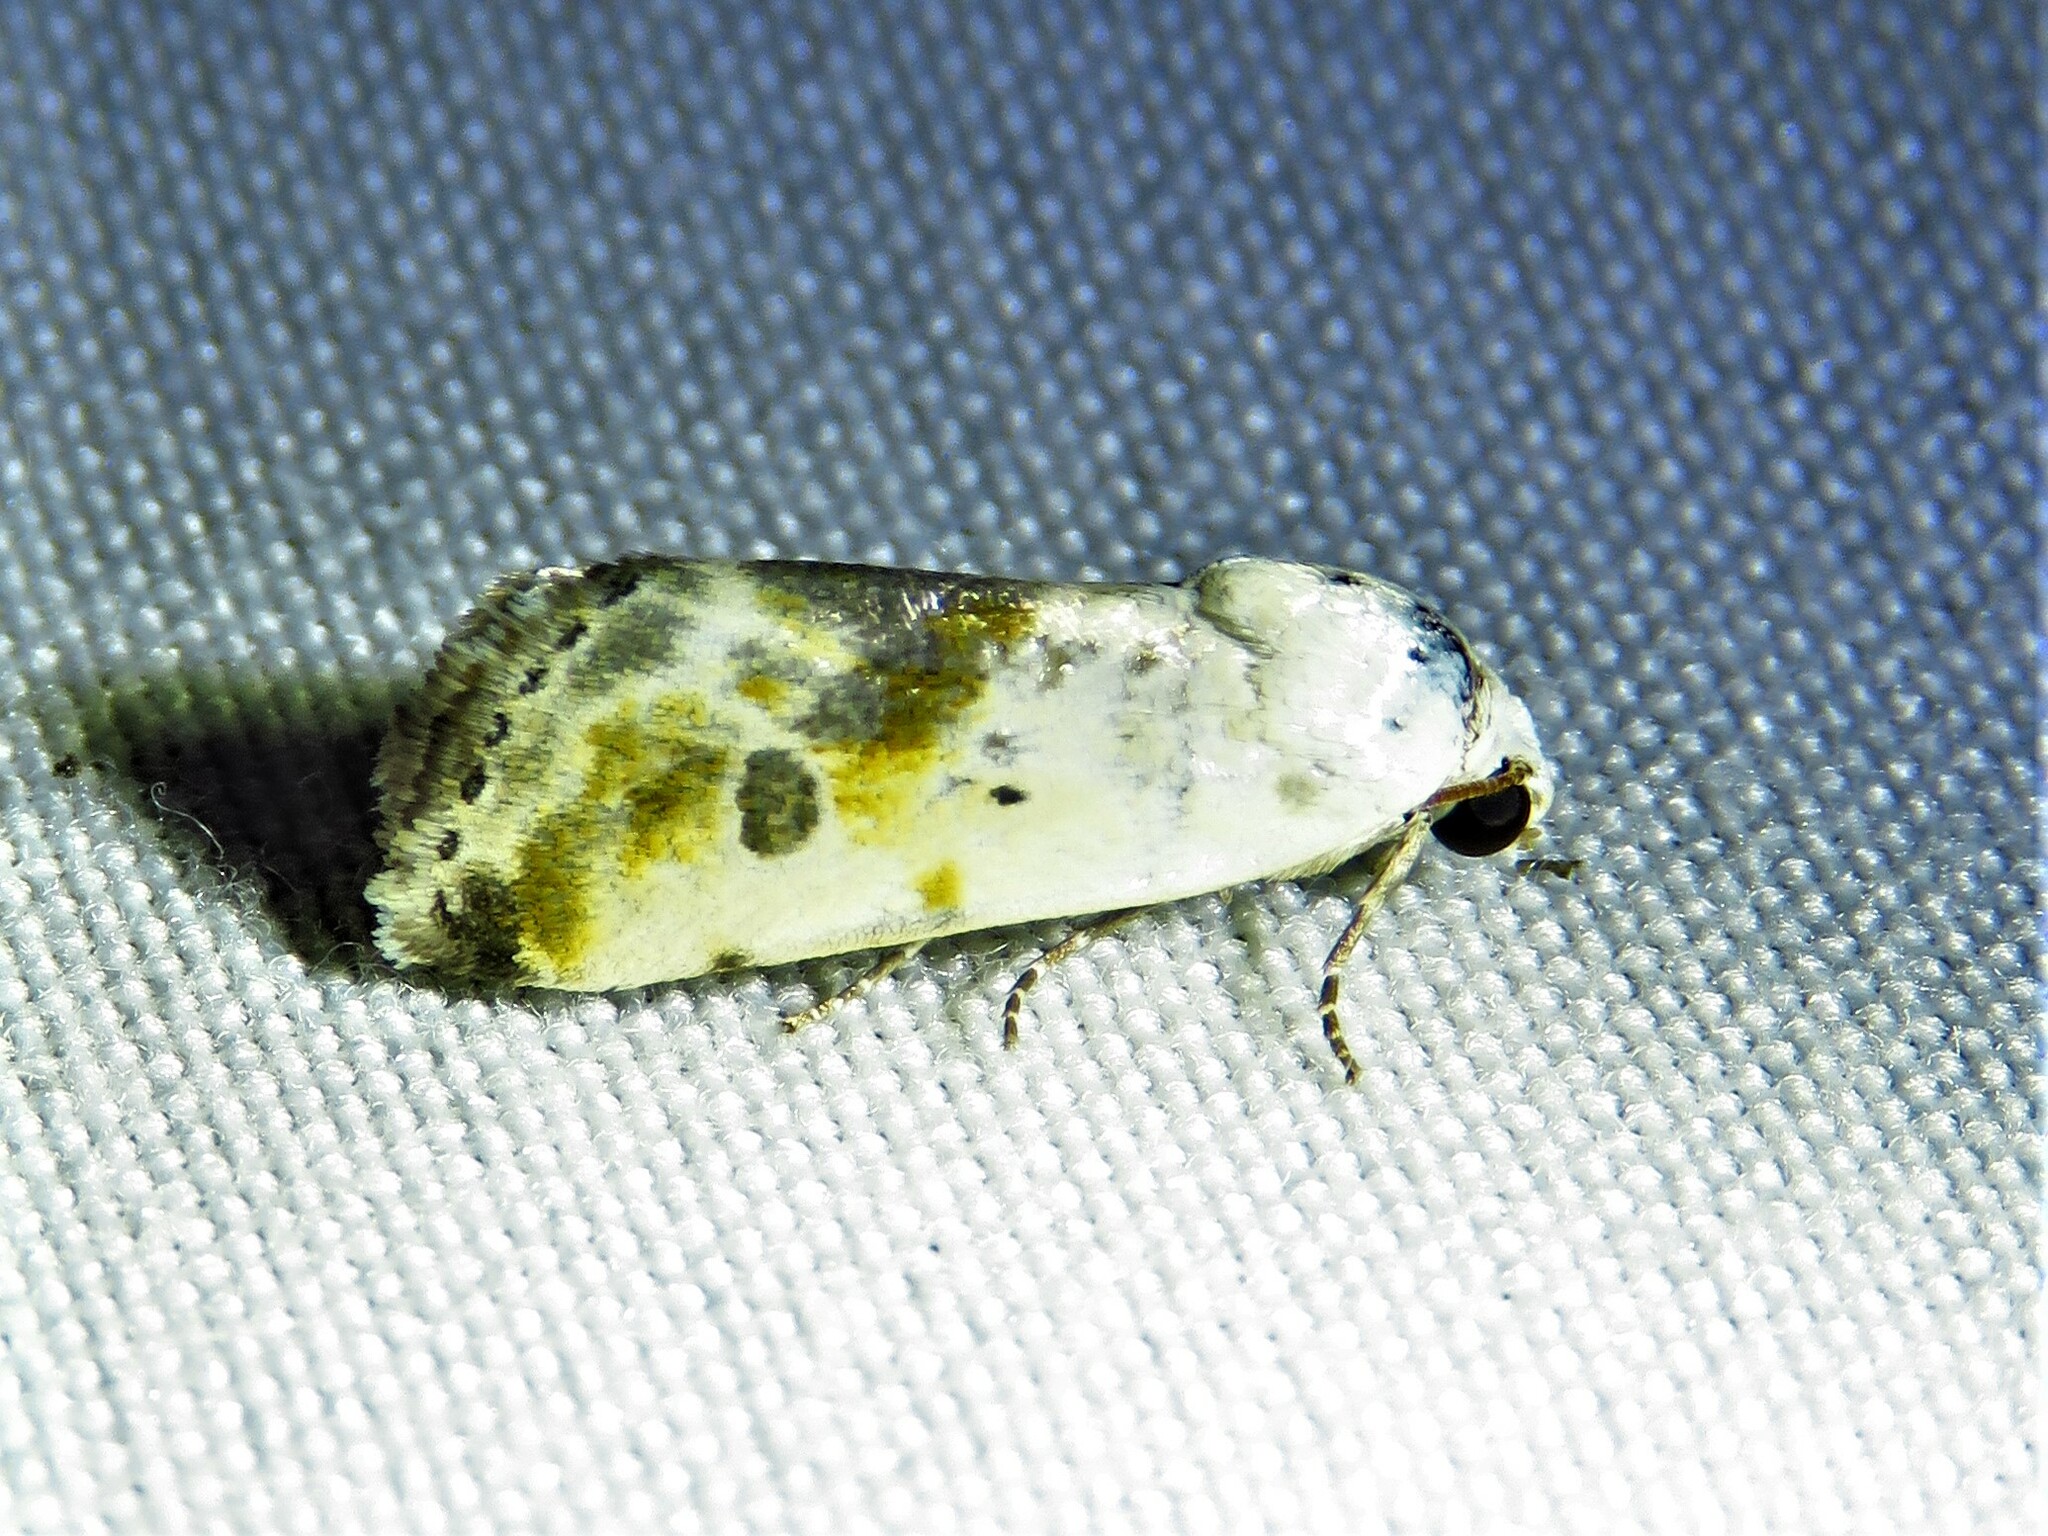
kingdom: Animalia
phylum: Arthropoda
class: Insecta
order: Lepidoptera
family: Noctuidae
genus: Acontia
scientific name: Acontia candefacta
